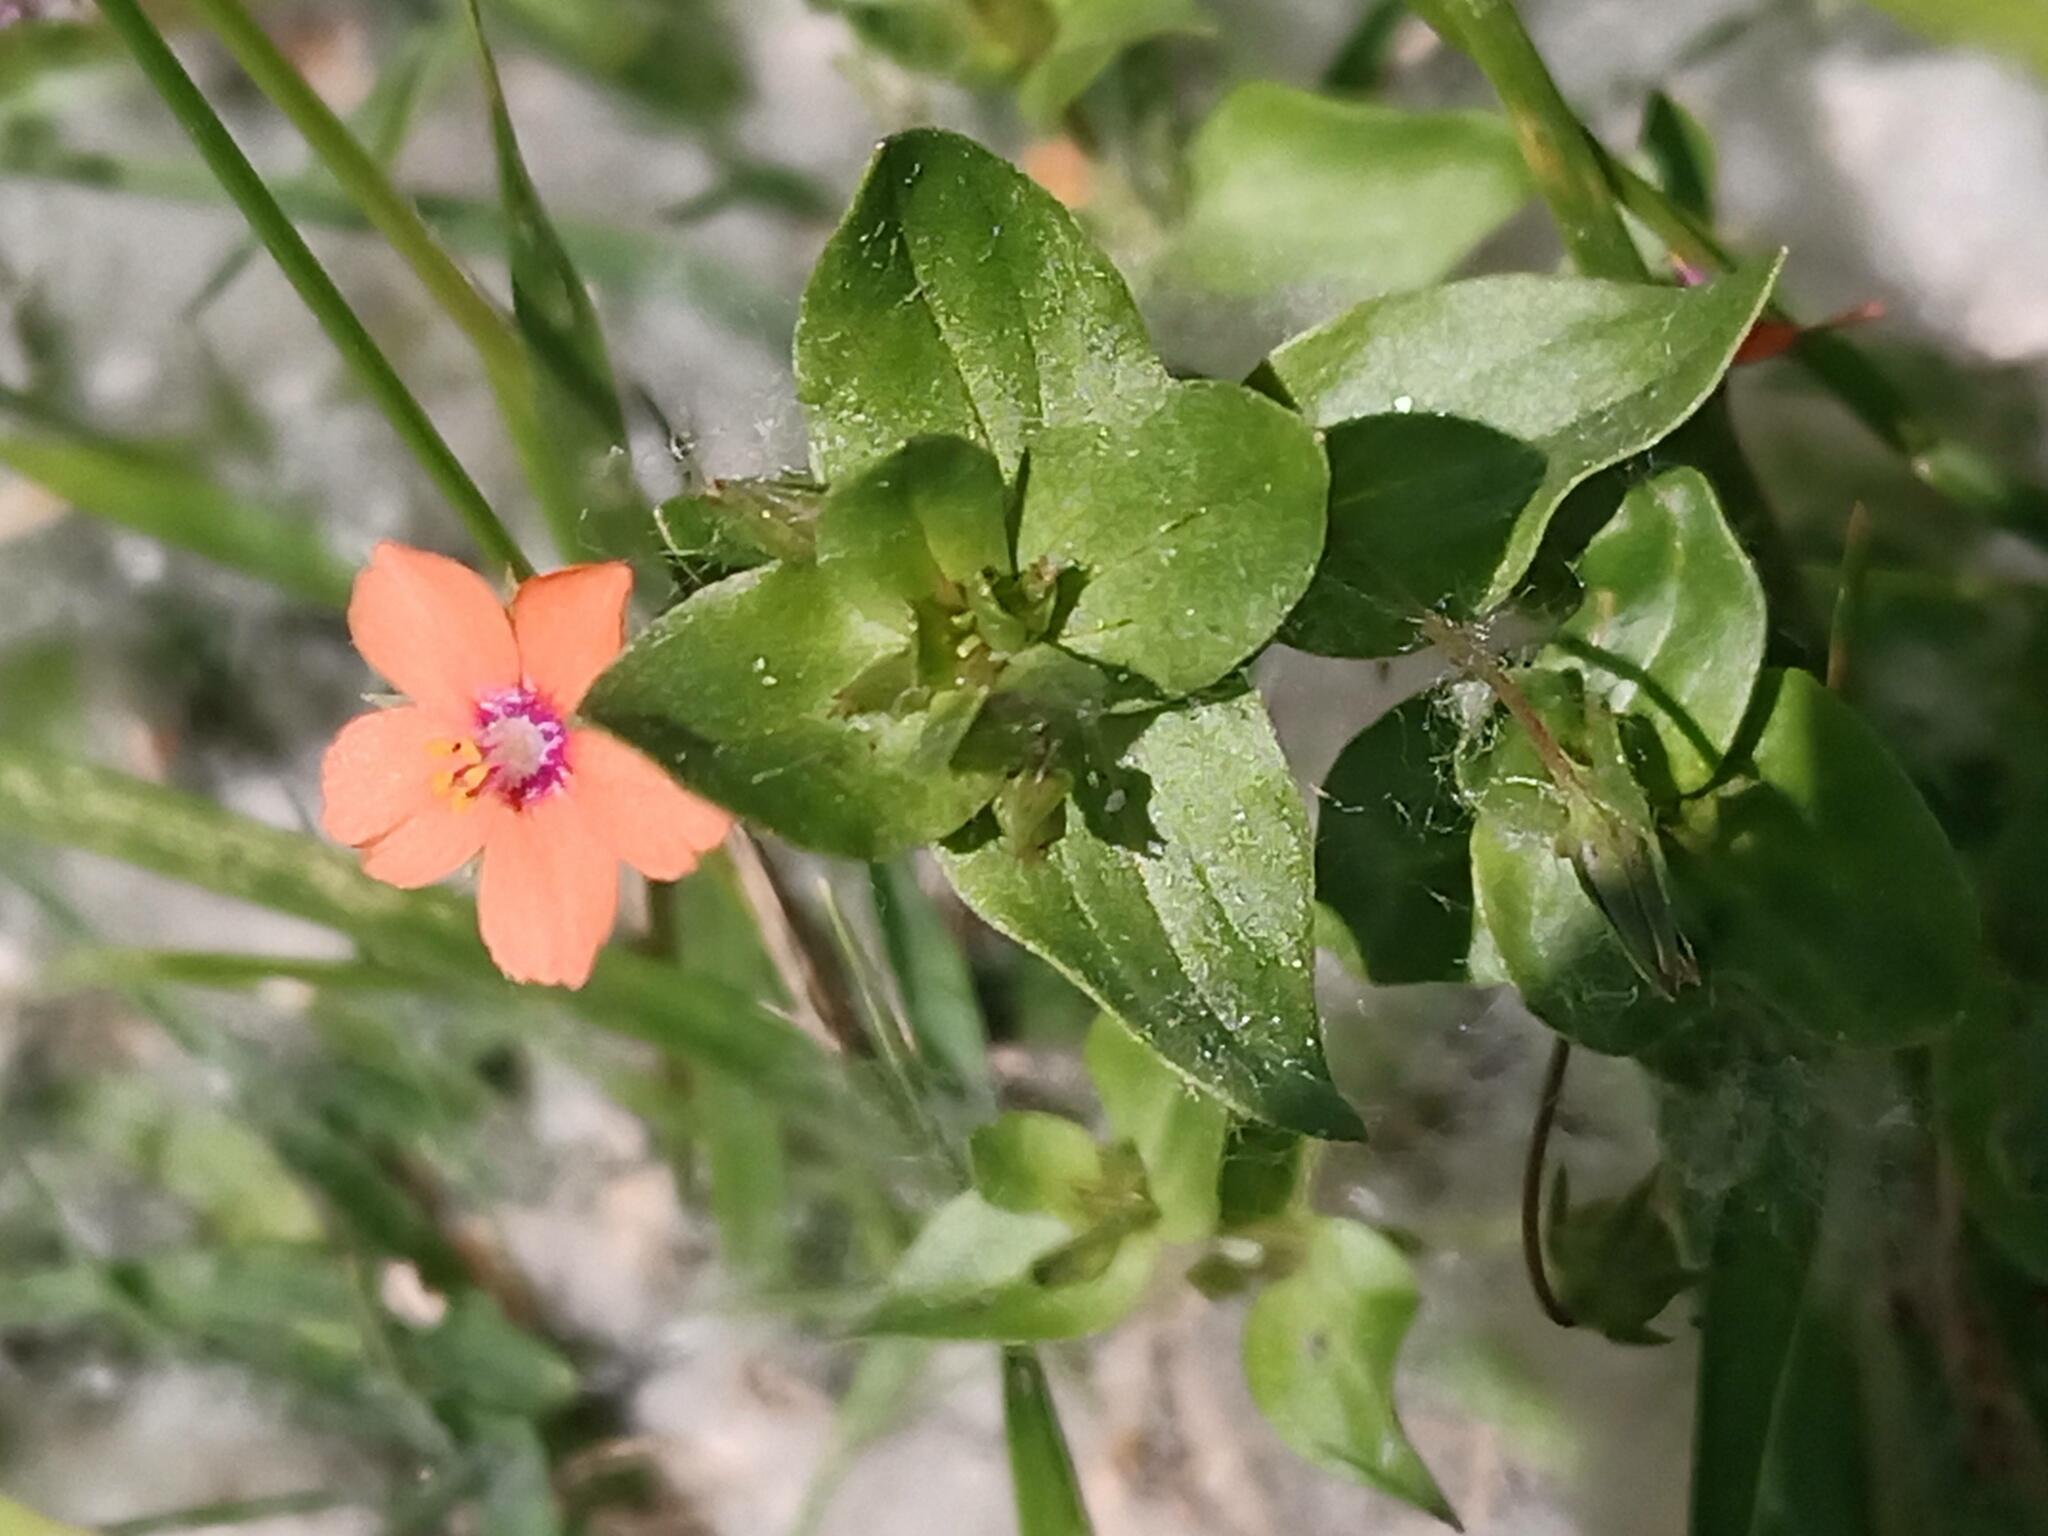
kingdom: Plantae
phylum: Tracheophyta
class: Magnoliopsida
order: Ericales
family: Primulaceae
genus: Lysimachia
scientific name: Lysimachia arvensis
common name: Scarlet pimpernel
